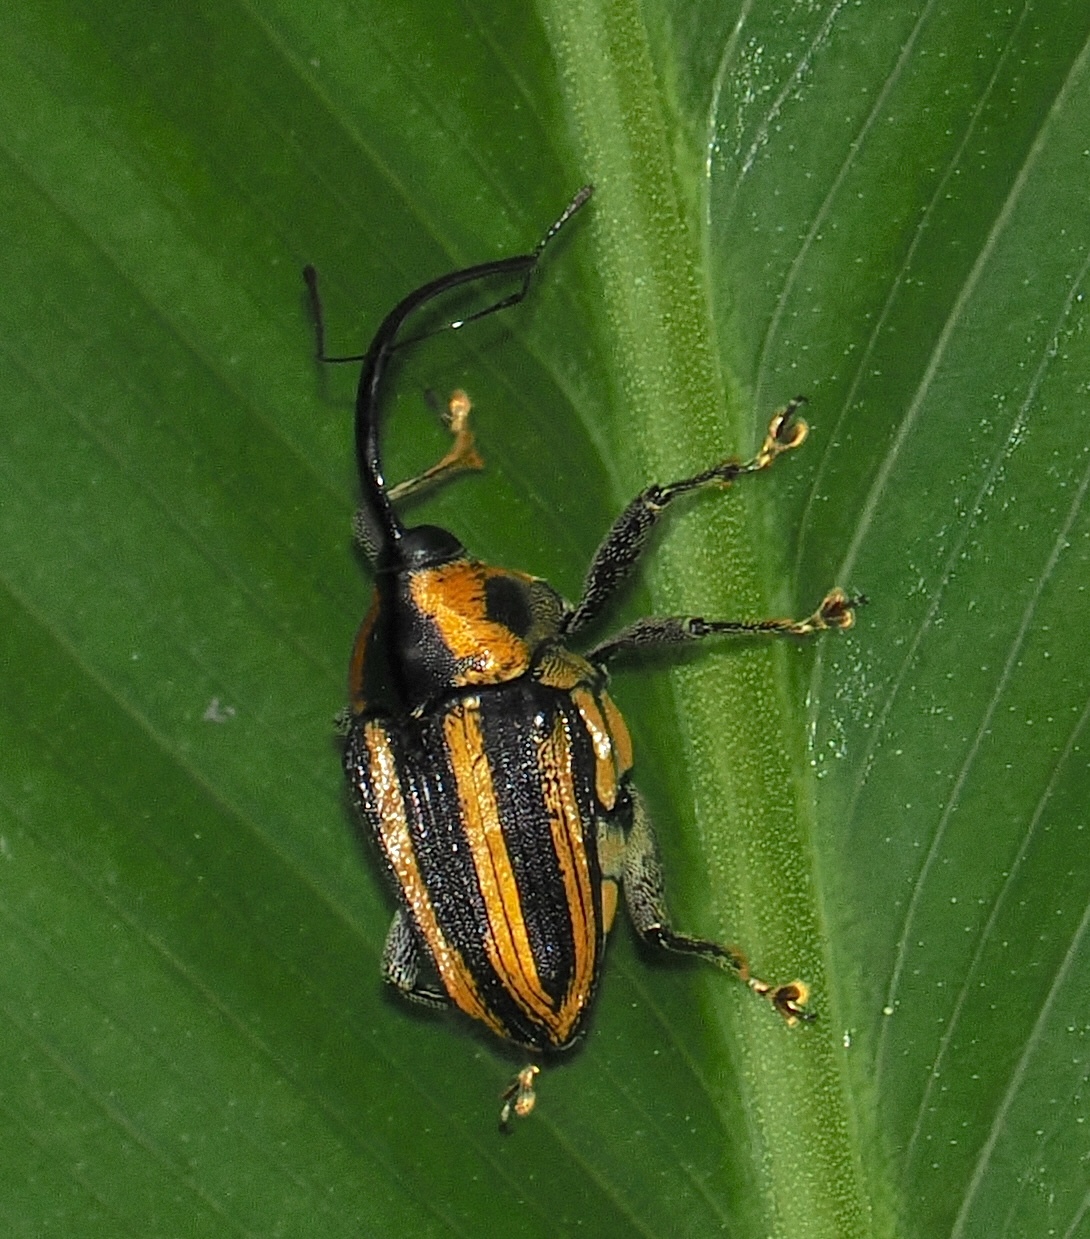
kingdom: Animalia
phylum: Arthropoda
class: Insecta
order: Coleoptera
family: Curculionidae
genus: Centrinus
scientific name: Centrinus curvirostris
